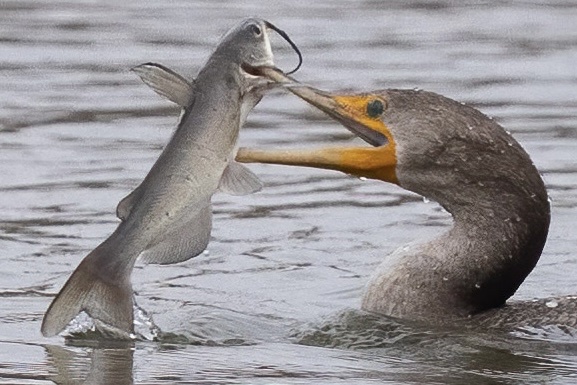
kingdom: Animalia
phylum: Chordata
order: Siluriformes
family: Ictaluridae
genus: Ictalurus
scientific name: Ictalurus punctatus
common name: Channel catfish
